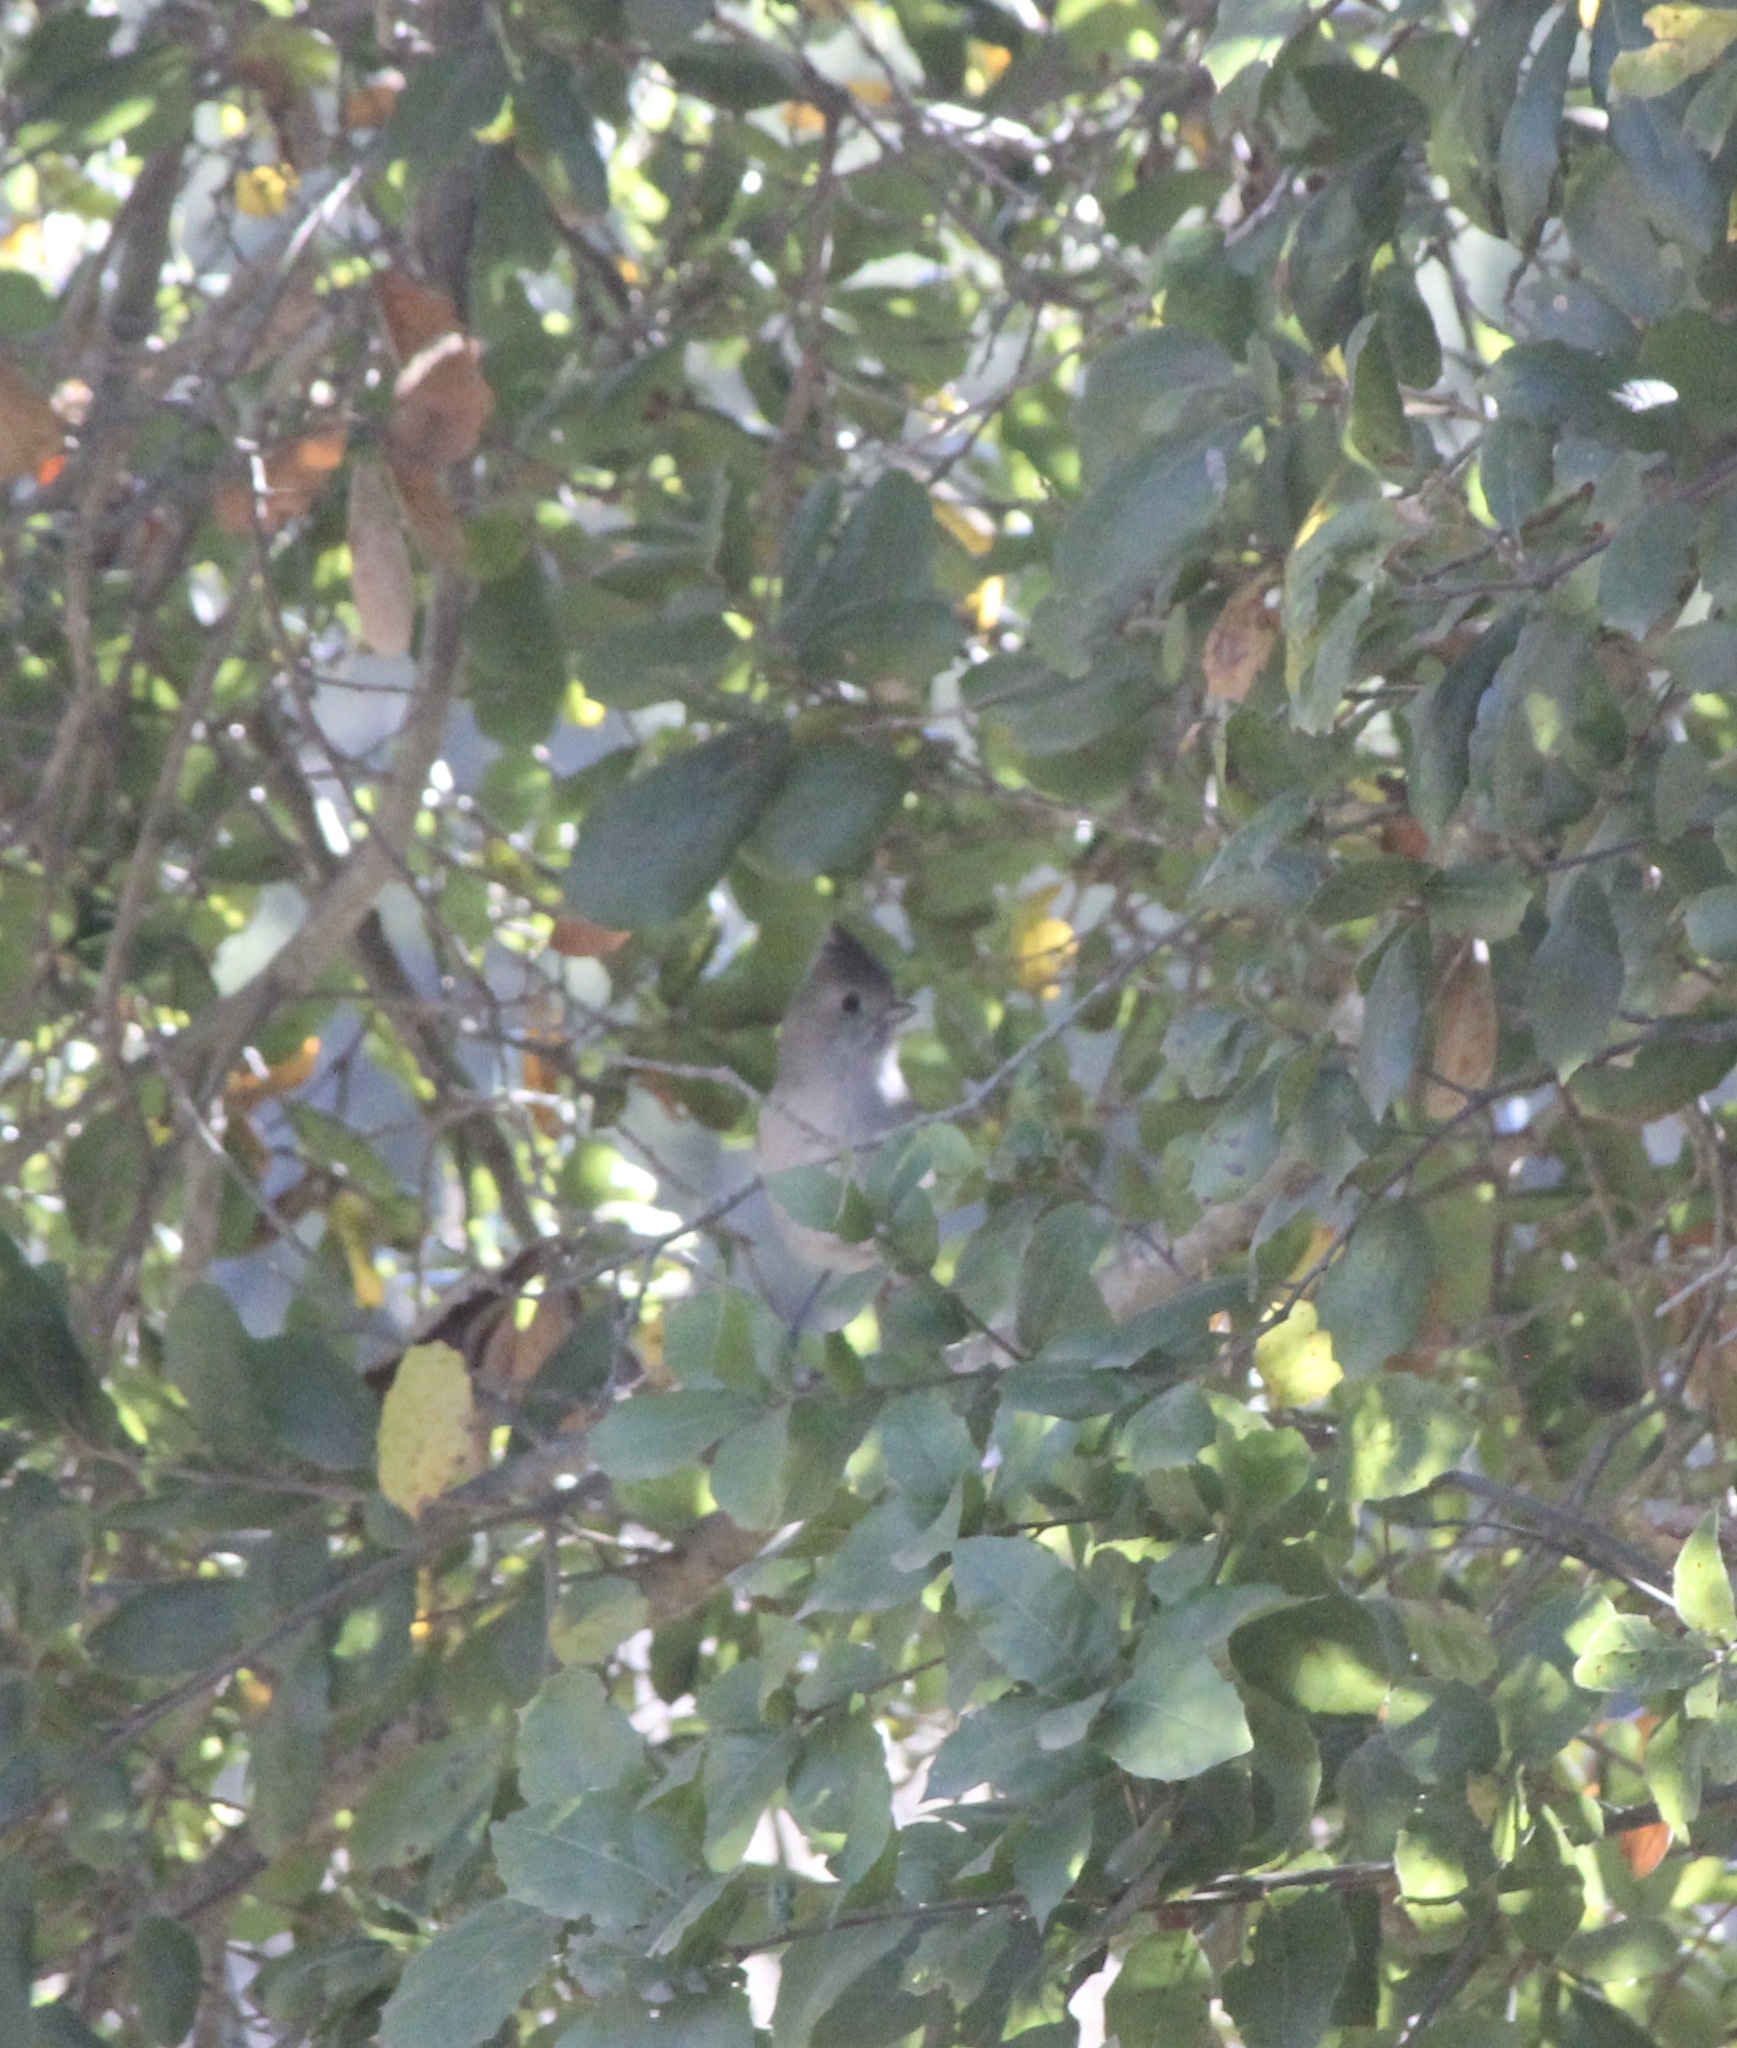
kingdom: Animalia
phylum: Chordata
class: Aves
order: Passeriformes
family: Paridae
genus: Baeolophus
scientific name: Baeolophus inornatus
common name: Oak titmouse
